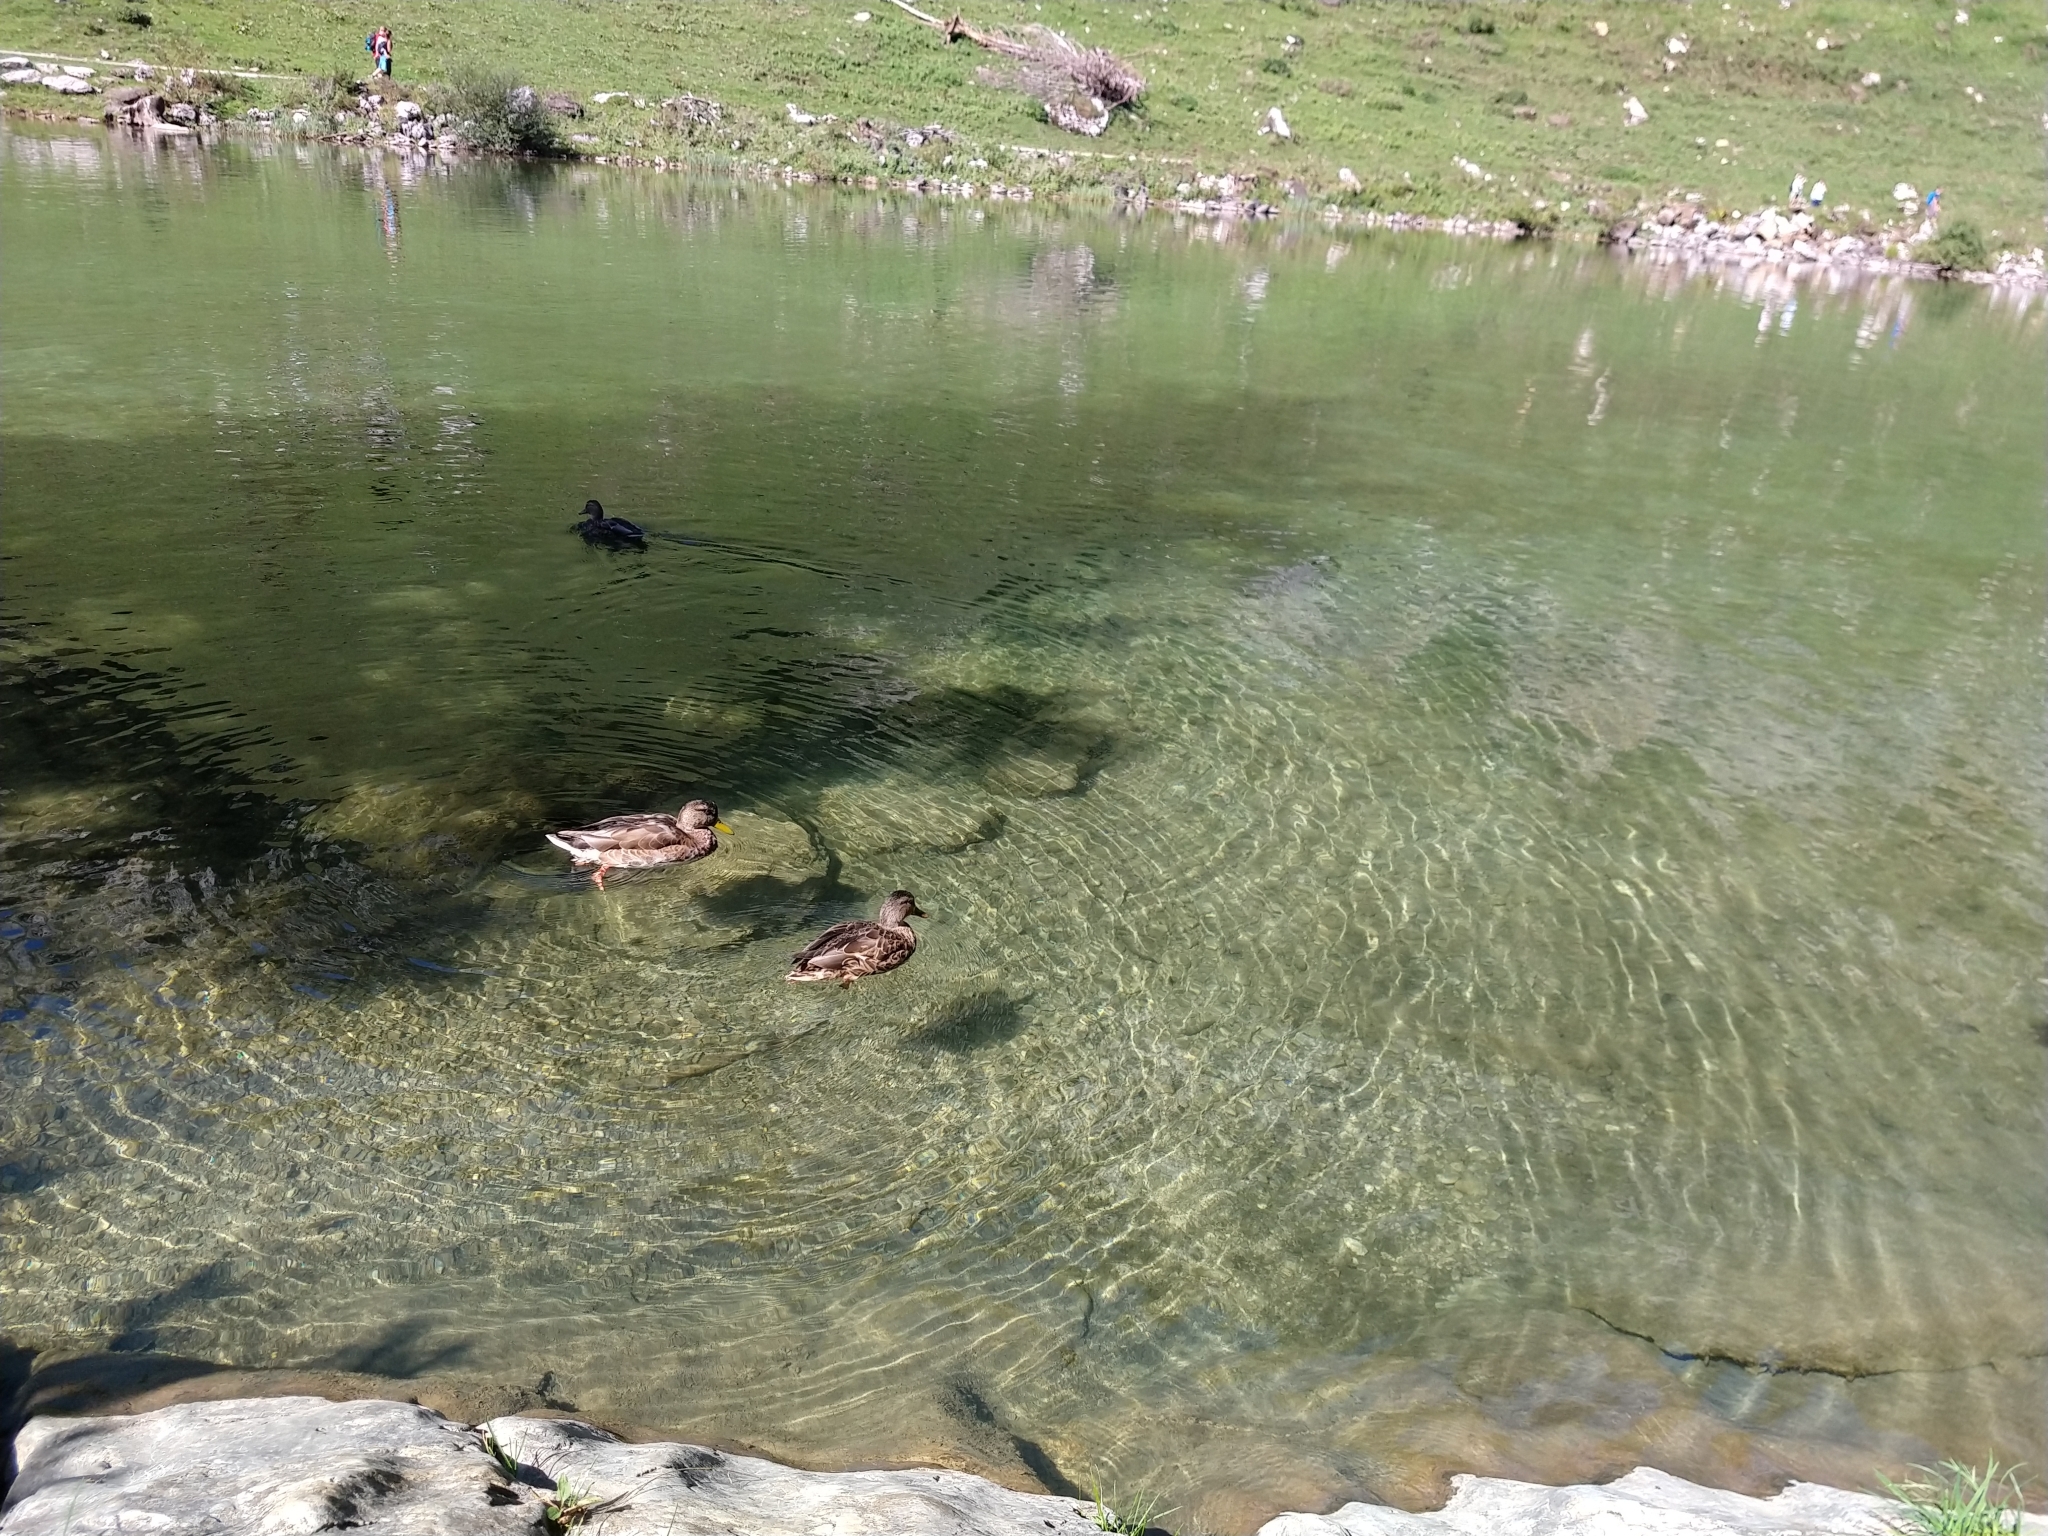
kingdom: Animalia
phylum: Chordata
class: Aves
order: Anseriformes
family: Anatidae
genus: Anas
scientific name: Anas platyrhynchos
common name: Mallard
